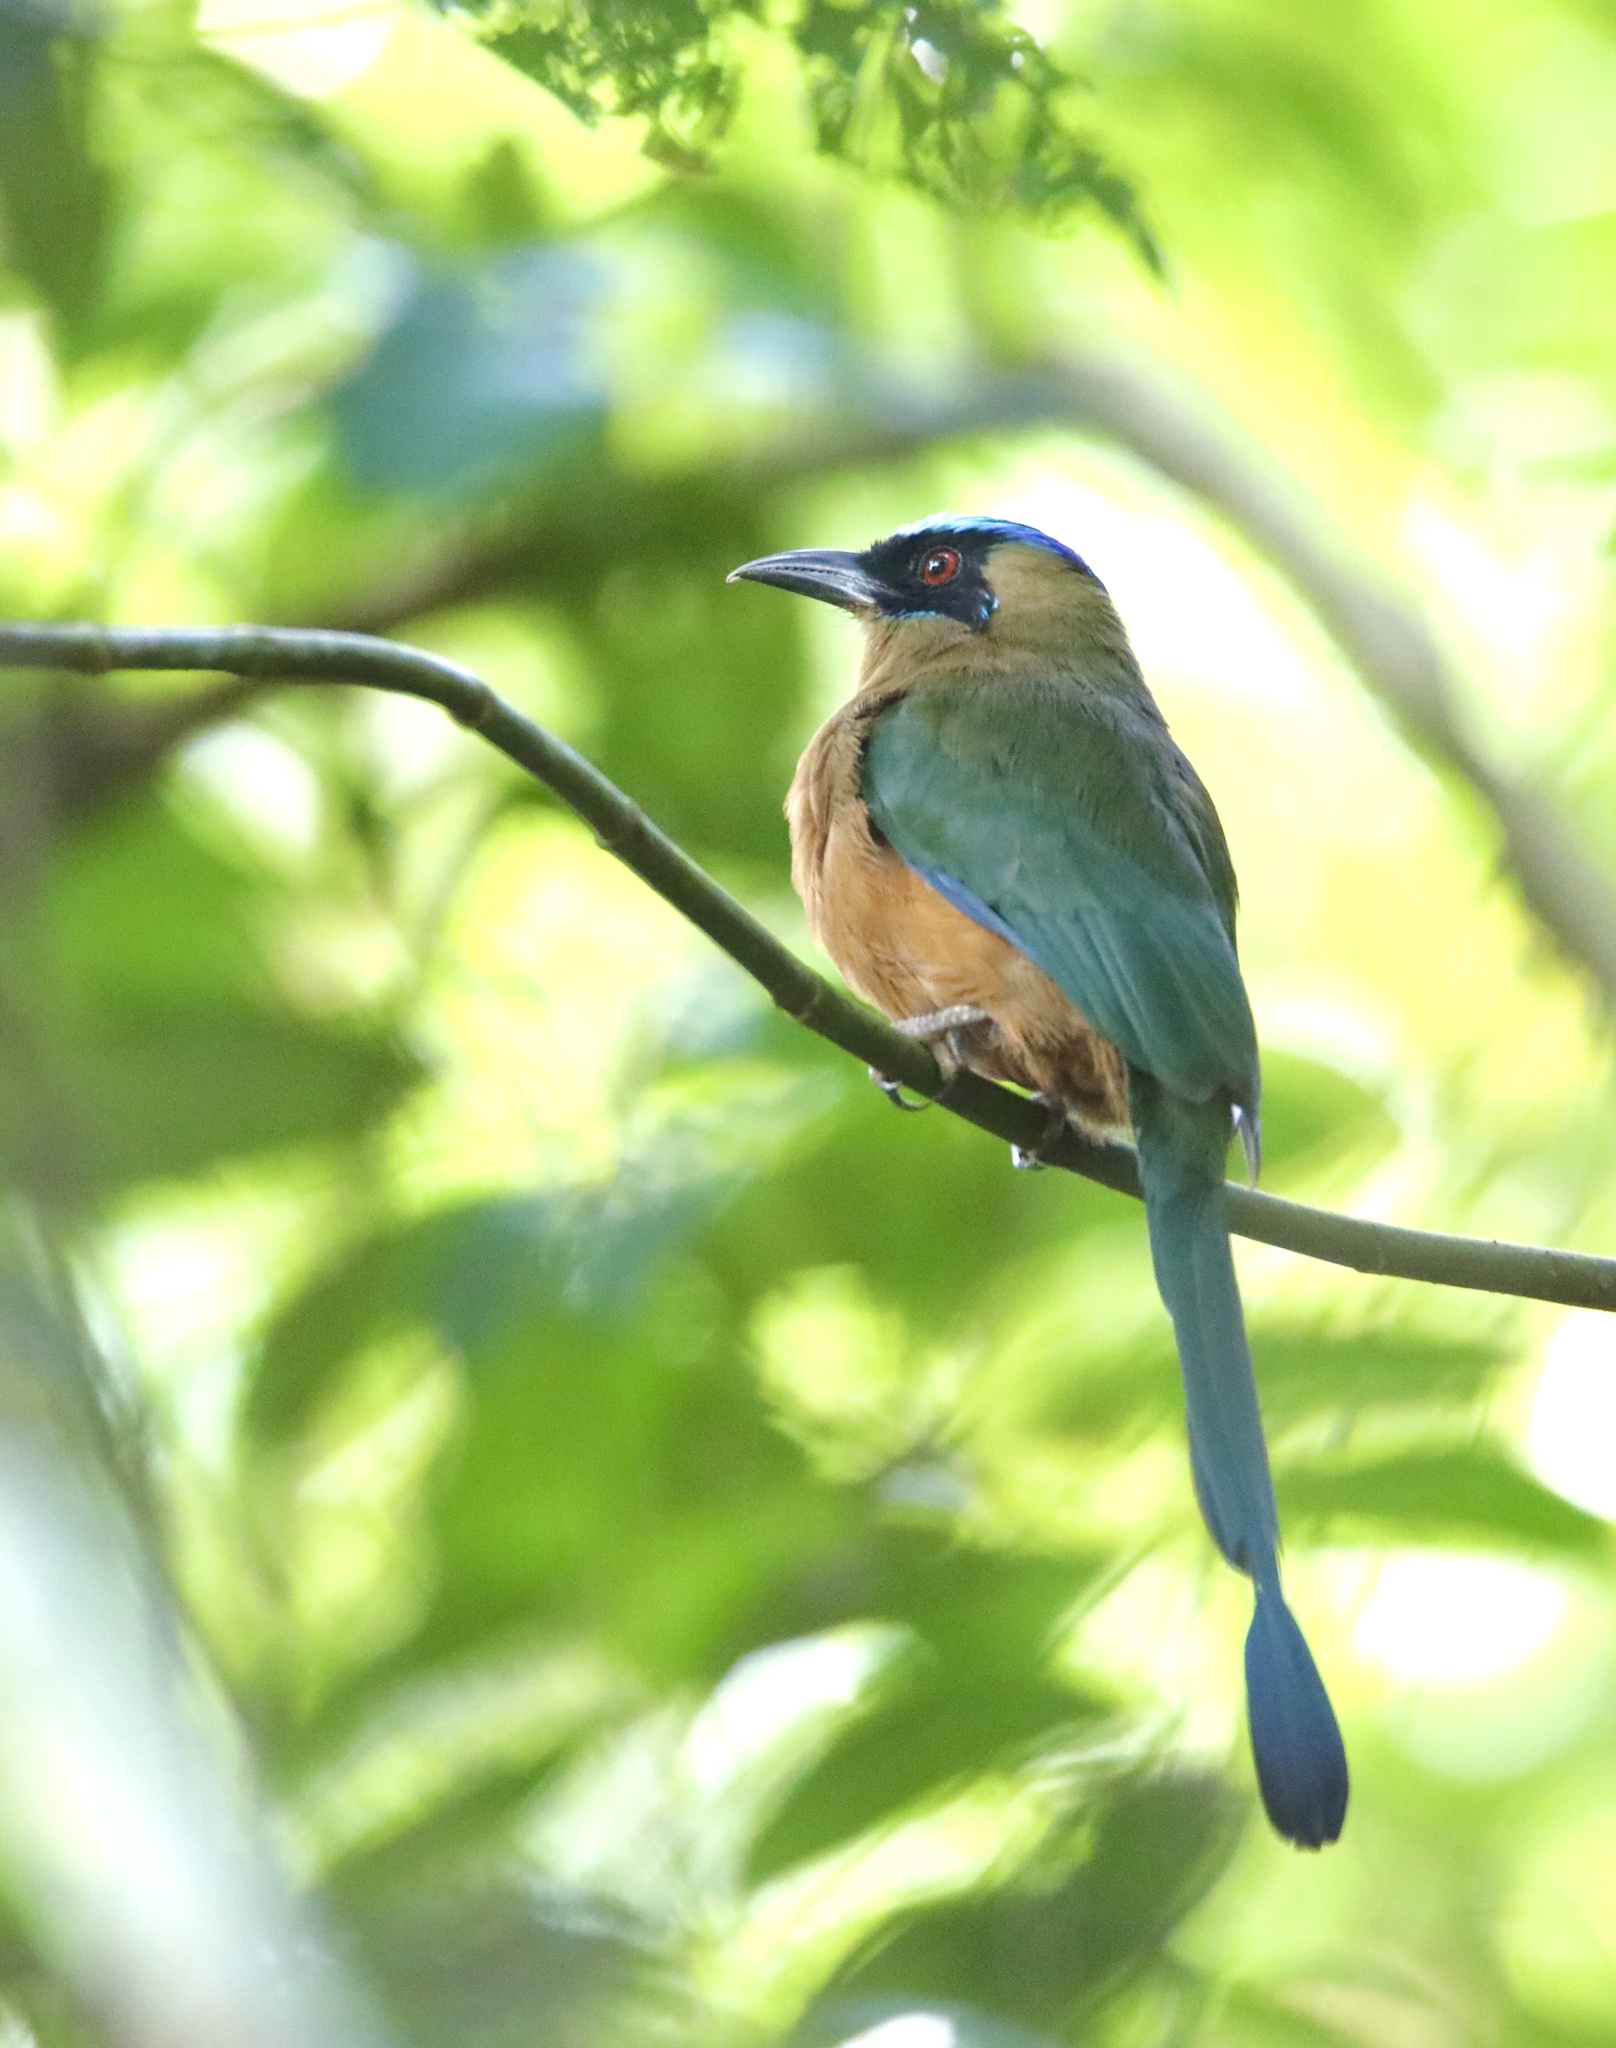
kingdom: Animalia
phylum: Chordata
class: Aves
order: Coraciiformes
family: Momotidae
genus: Momotus
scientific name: Momotus subrufescens
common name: Whooping motmot
